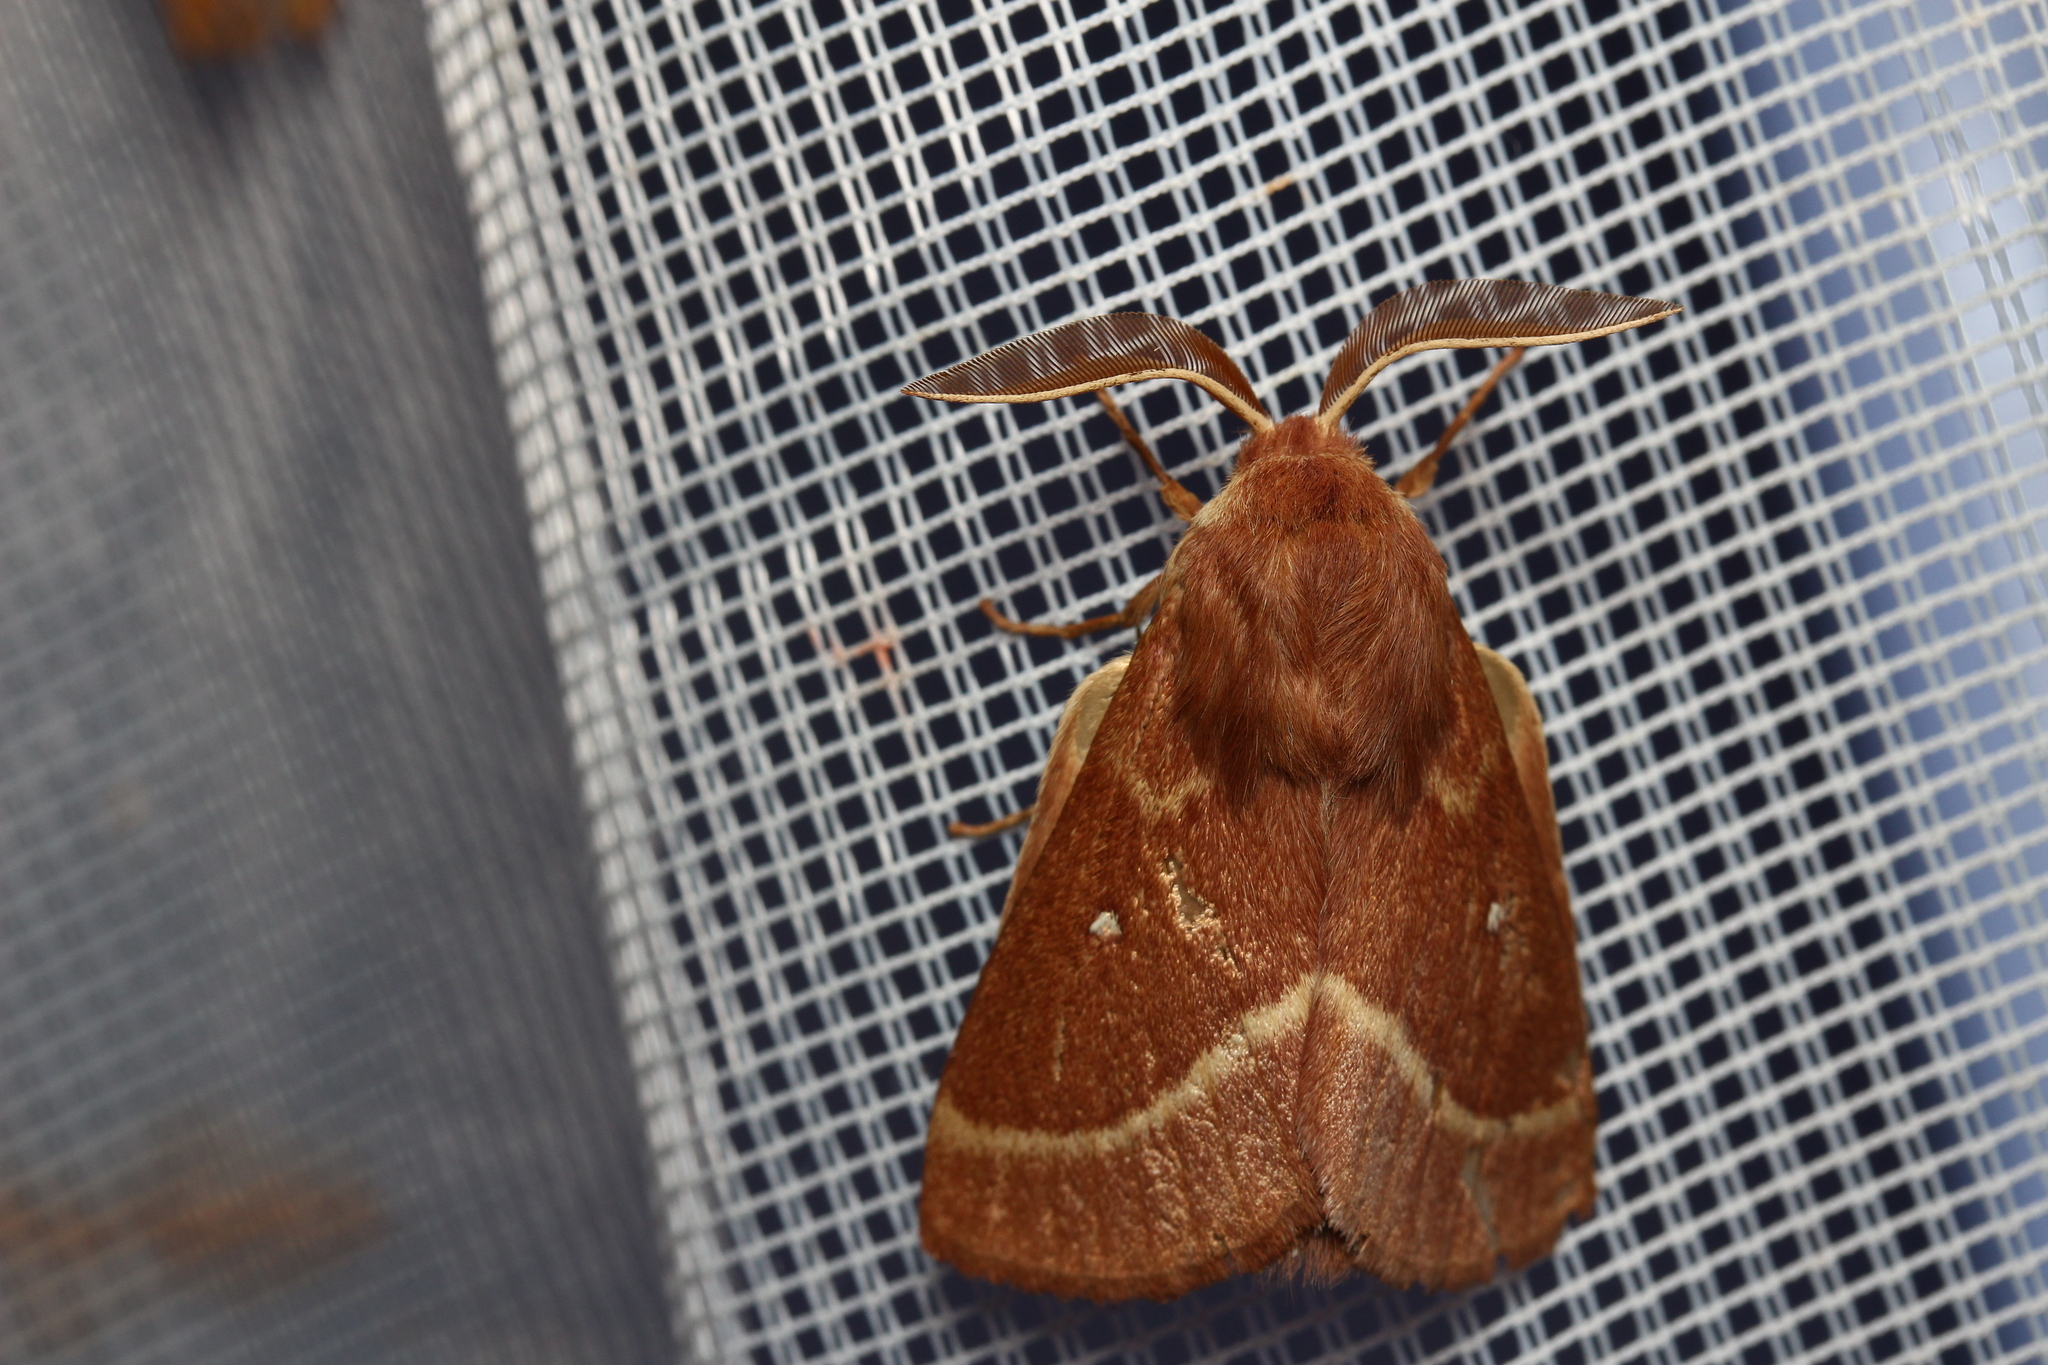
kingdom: Animalia
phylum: Arthropoda
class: Insecta
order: Lepidoptera
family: Lasiocampidae
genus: Lasiocampa
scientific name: Lasiocampa trifolii
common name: Grass eggar
